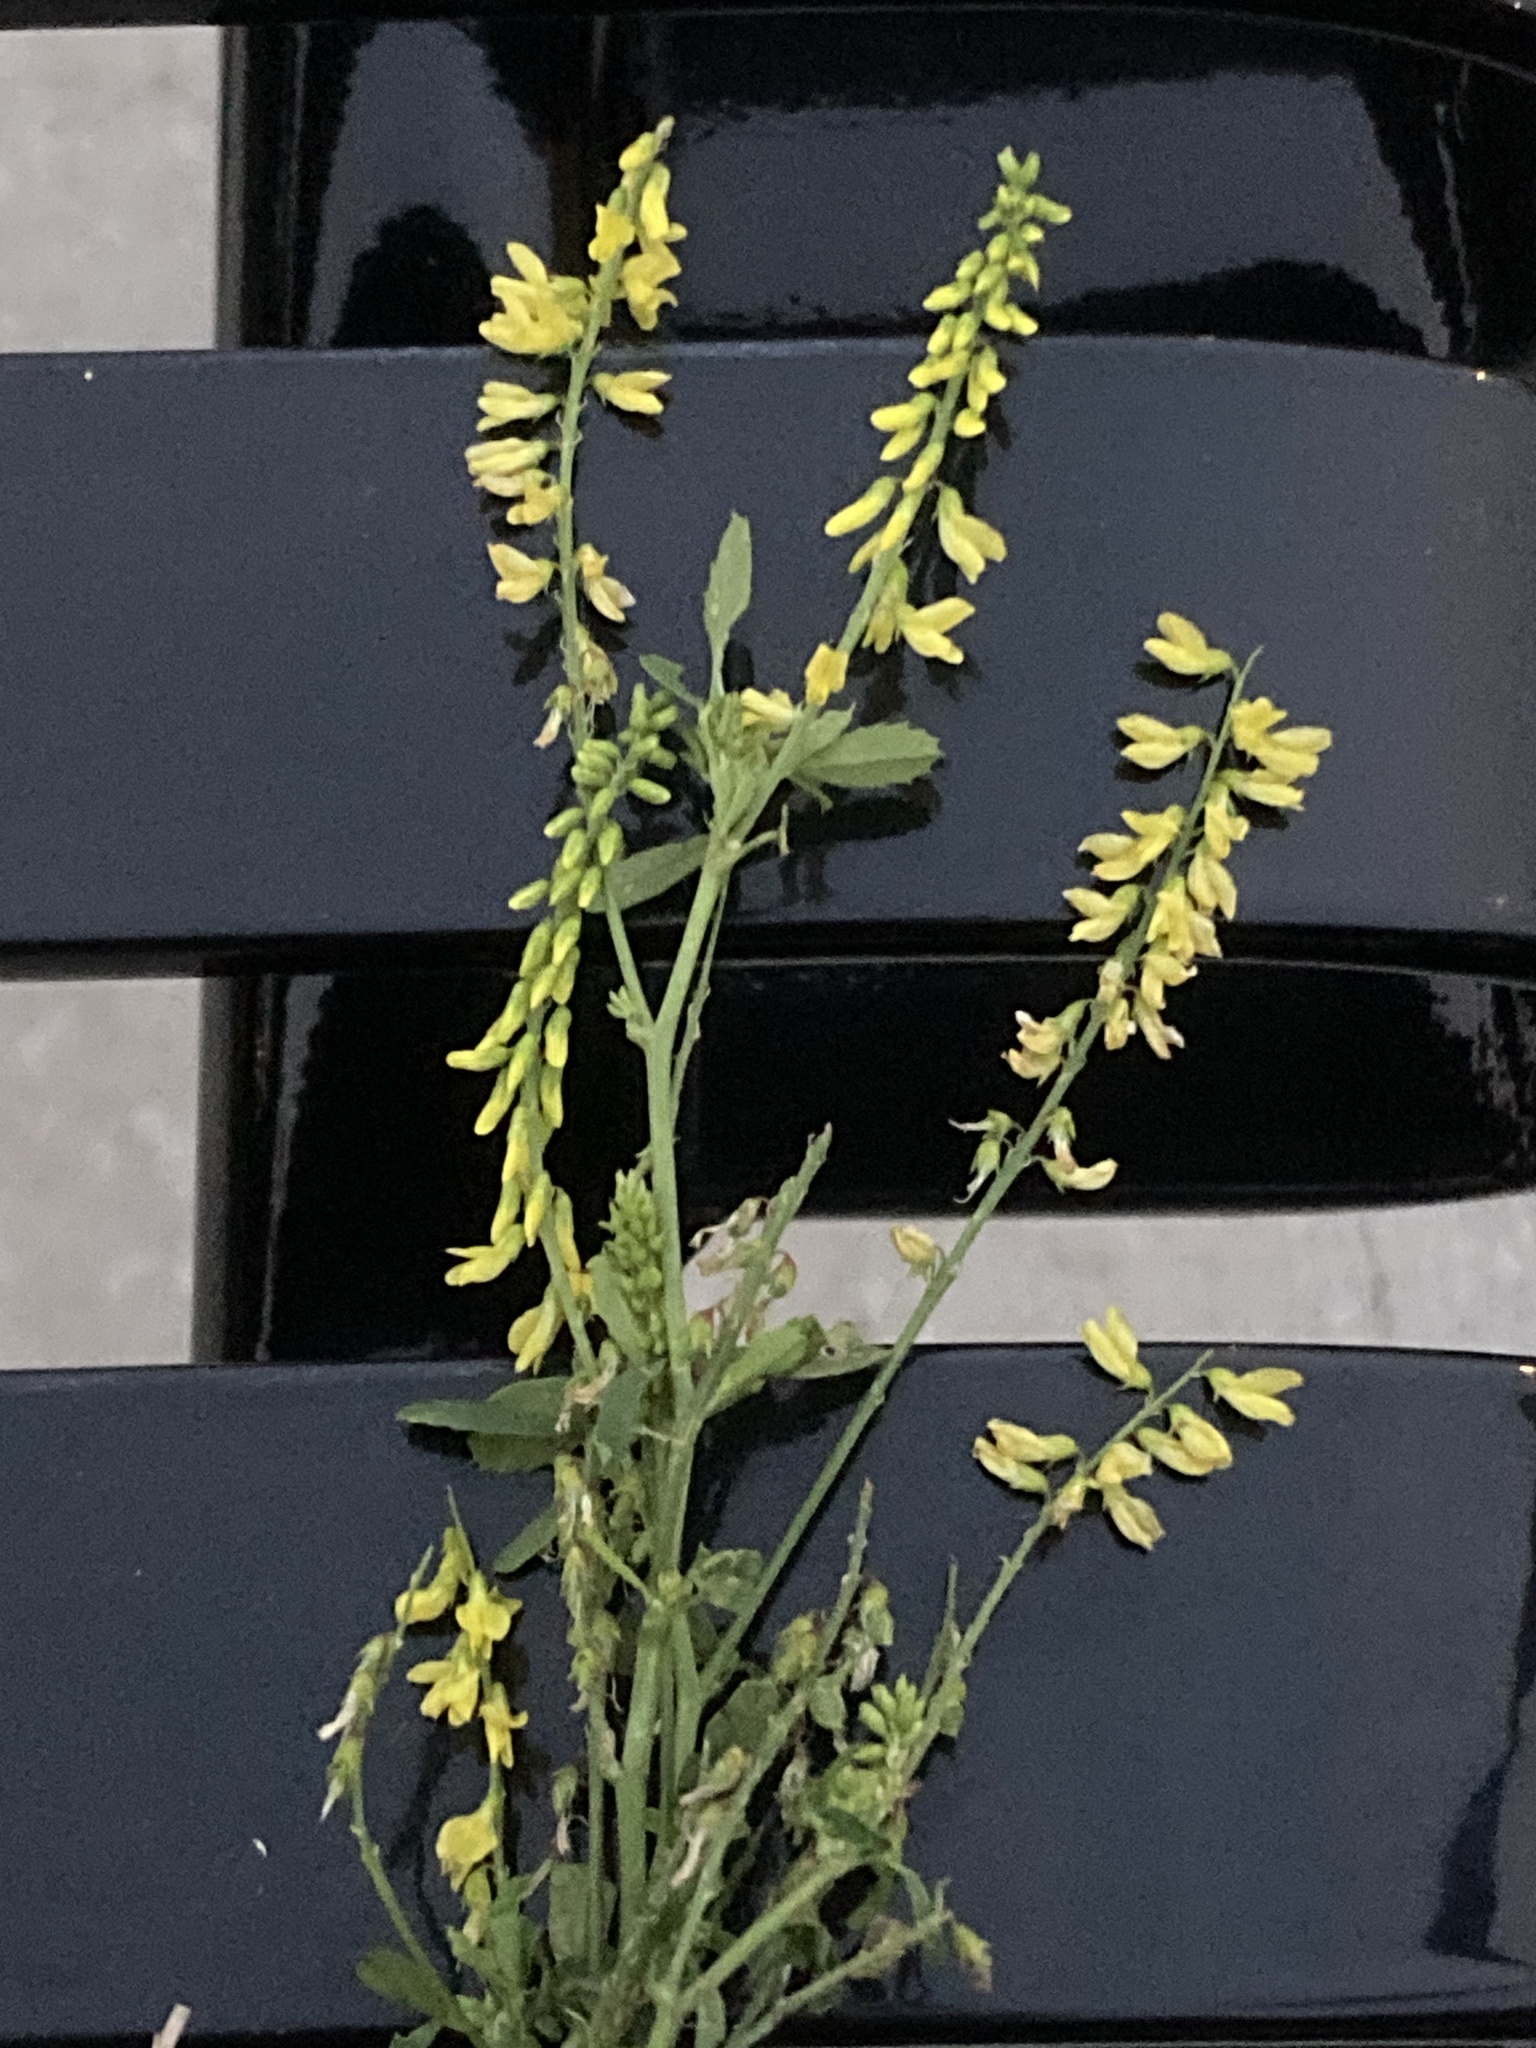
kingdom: Plantae
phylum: Tracheophyta
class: Magnoliopsida
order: Fabales
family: Fabaceae
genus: Melilotus
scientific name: Melilotus officinalis
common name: Sweetclover
